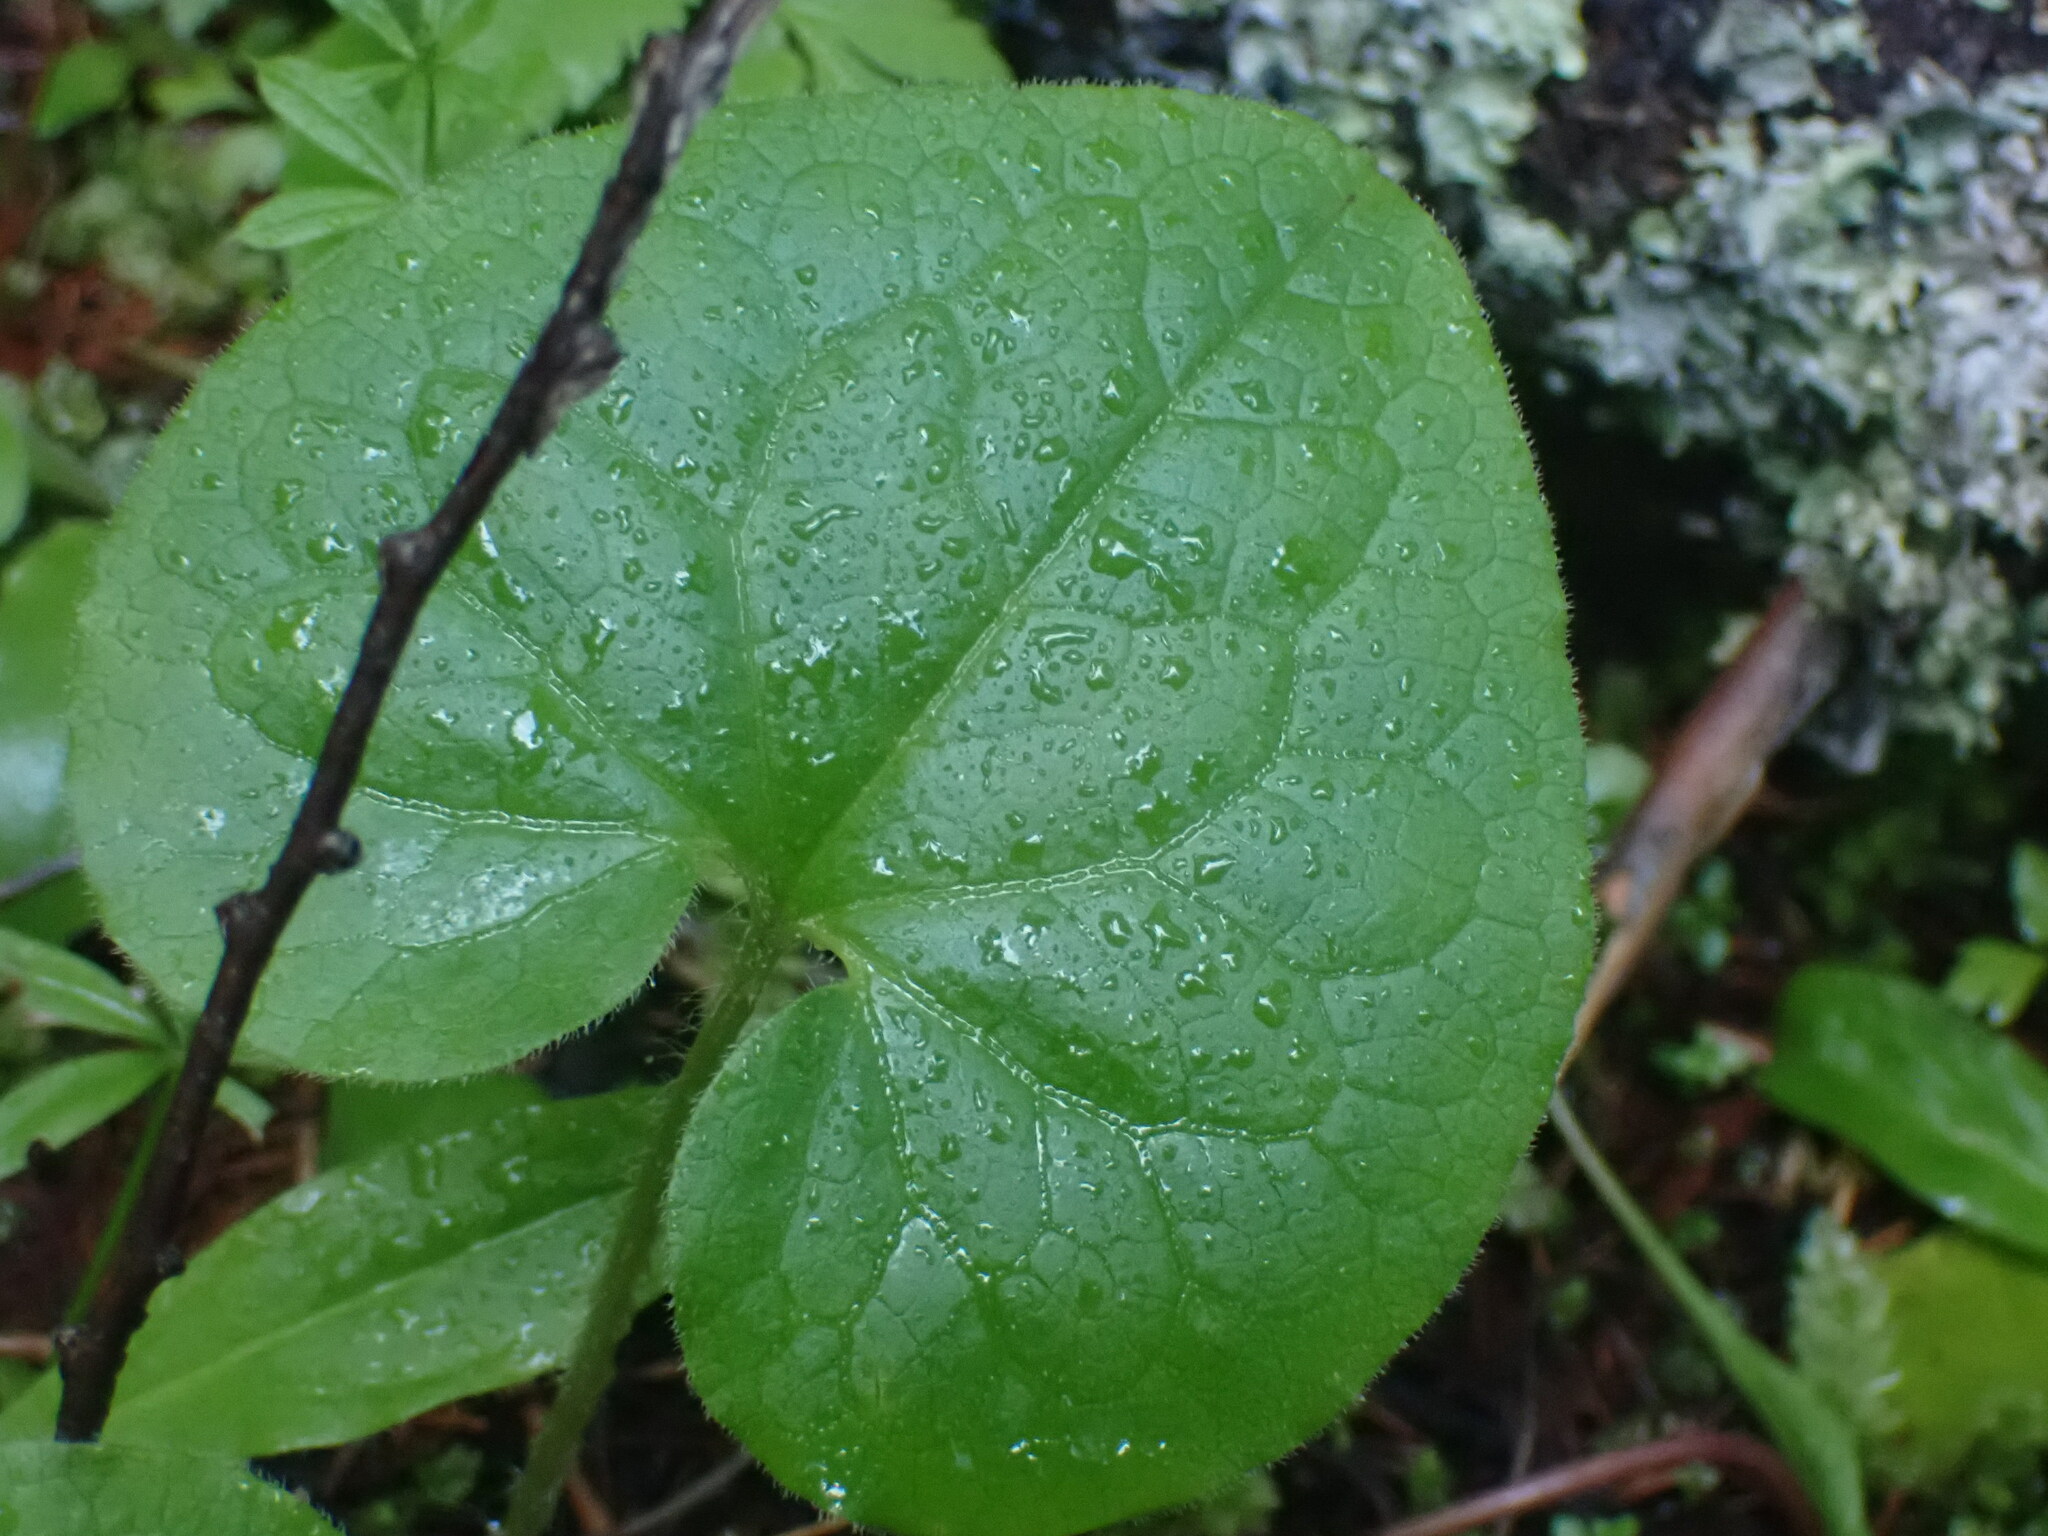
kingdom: Plantae
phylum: Tracheophyta
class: Magnoliopsida
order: Piperales
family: Aristolochiaceae
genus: Asarum
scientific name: Asarum caudatum
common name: Wild ginger
